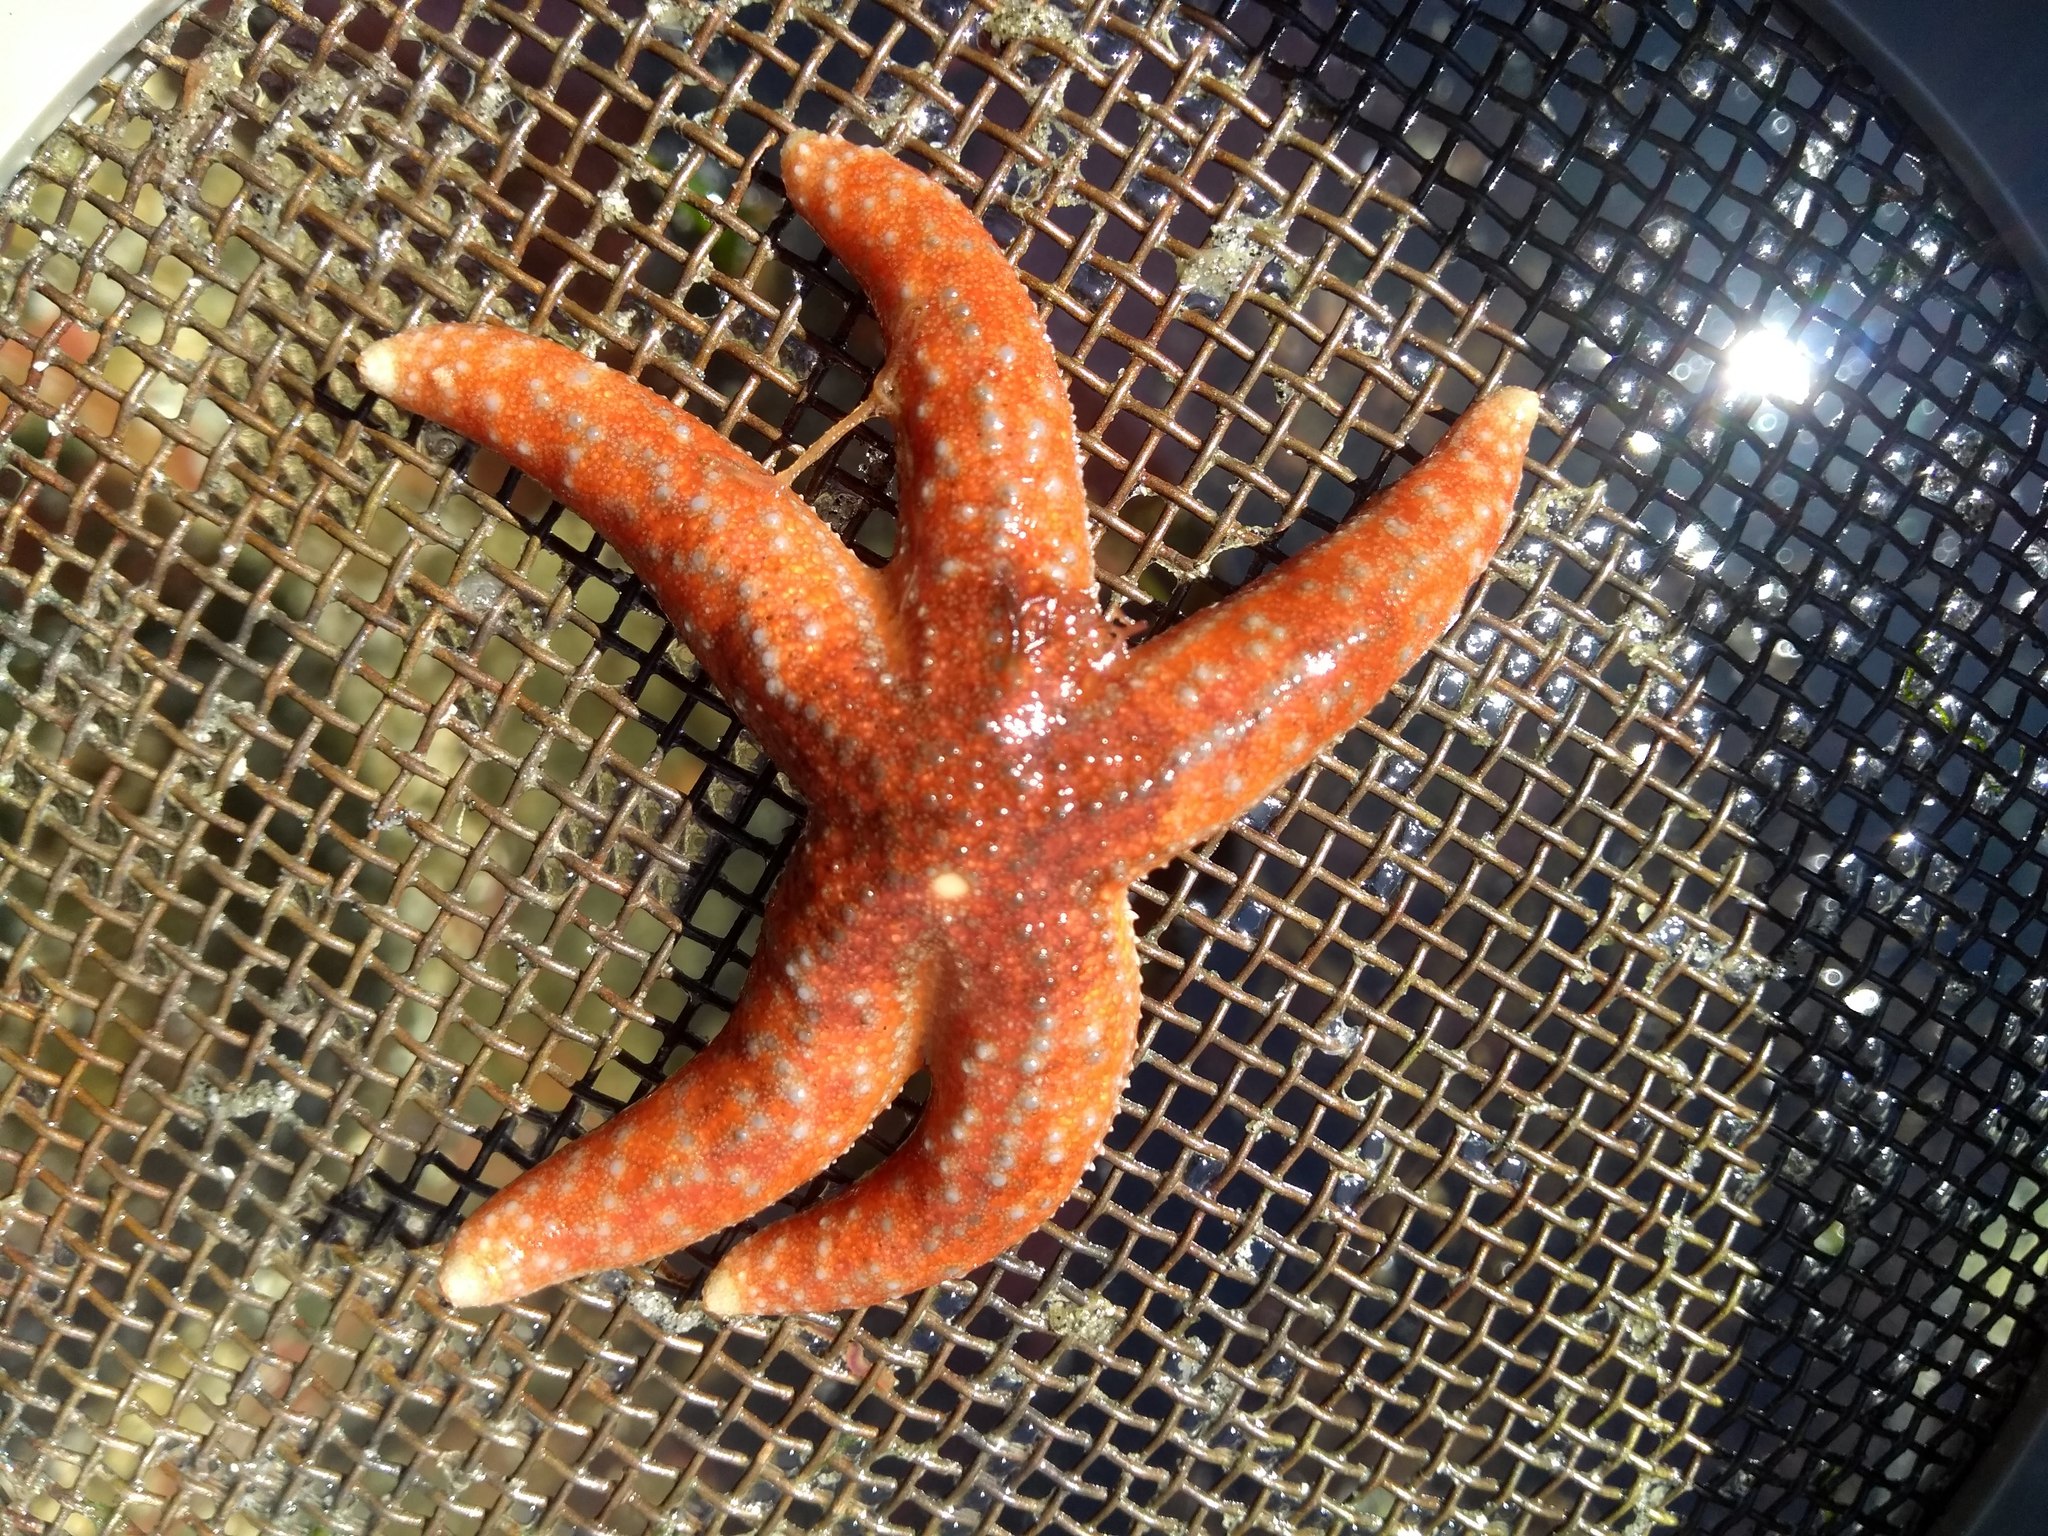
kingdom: Animalia
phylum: Echinodermata
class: Asteroidea
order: Forcipulatida
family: Asteriidae
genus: Evasterias
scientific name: Evasterias troschelii
